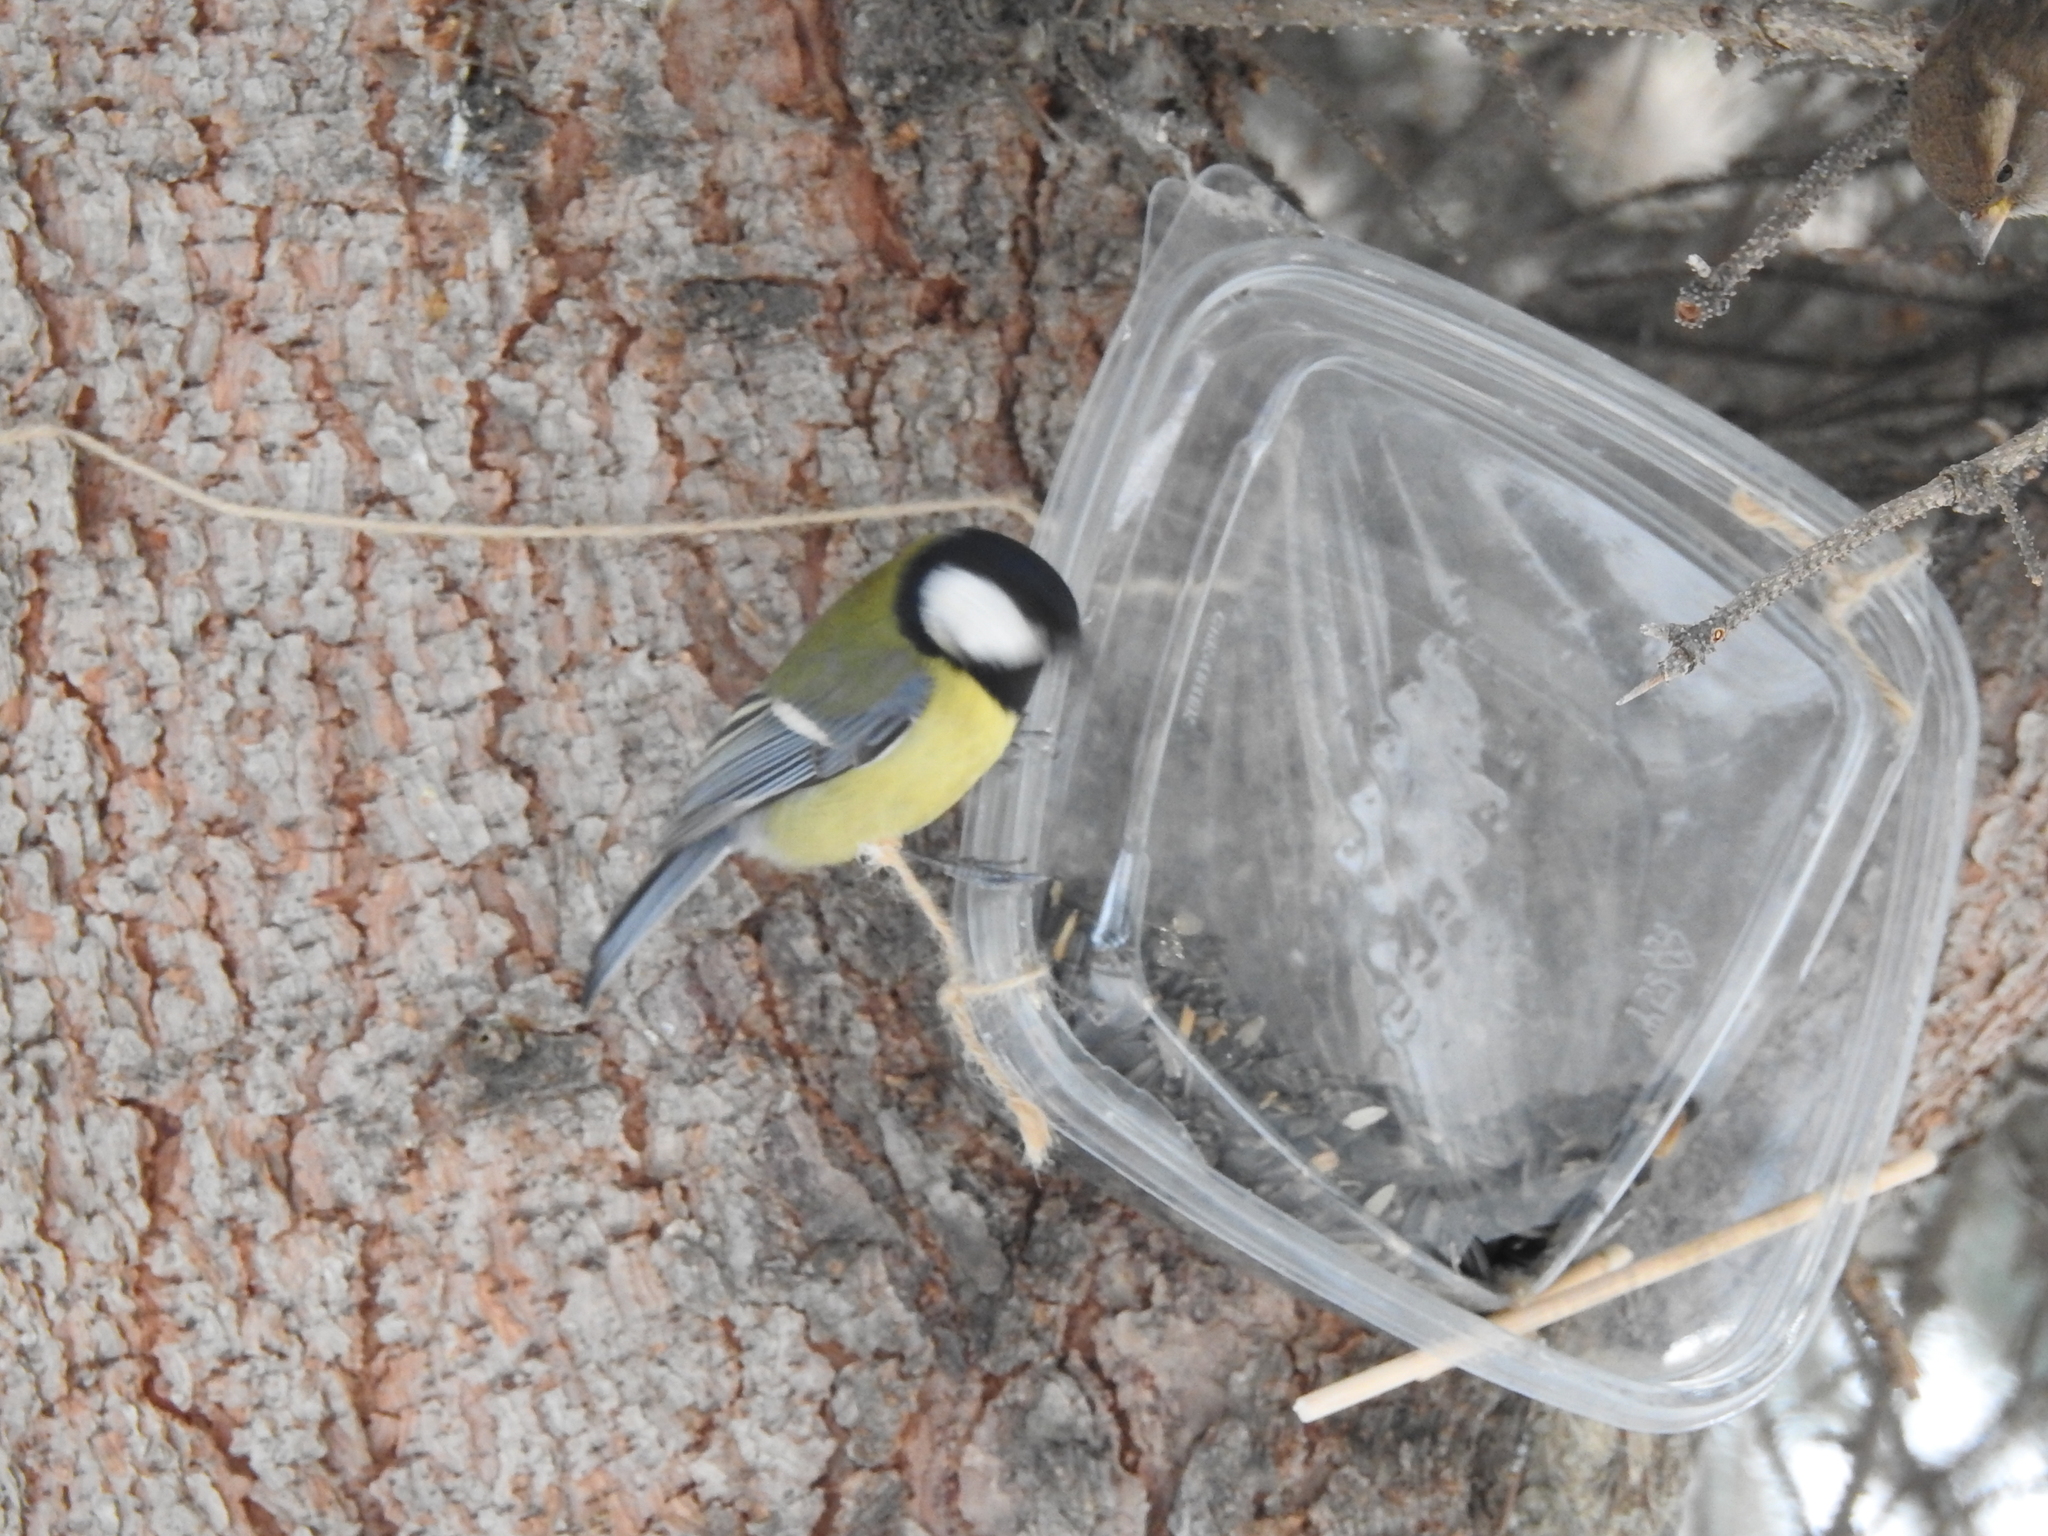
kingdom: Animalia
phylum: Chordata
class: Aves
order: Passeriformes
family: Paridae
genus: Parus
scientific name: Parus major
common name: Great tit
